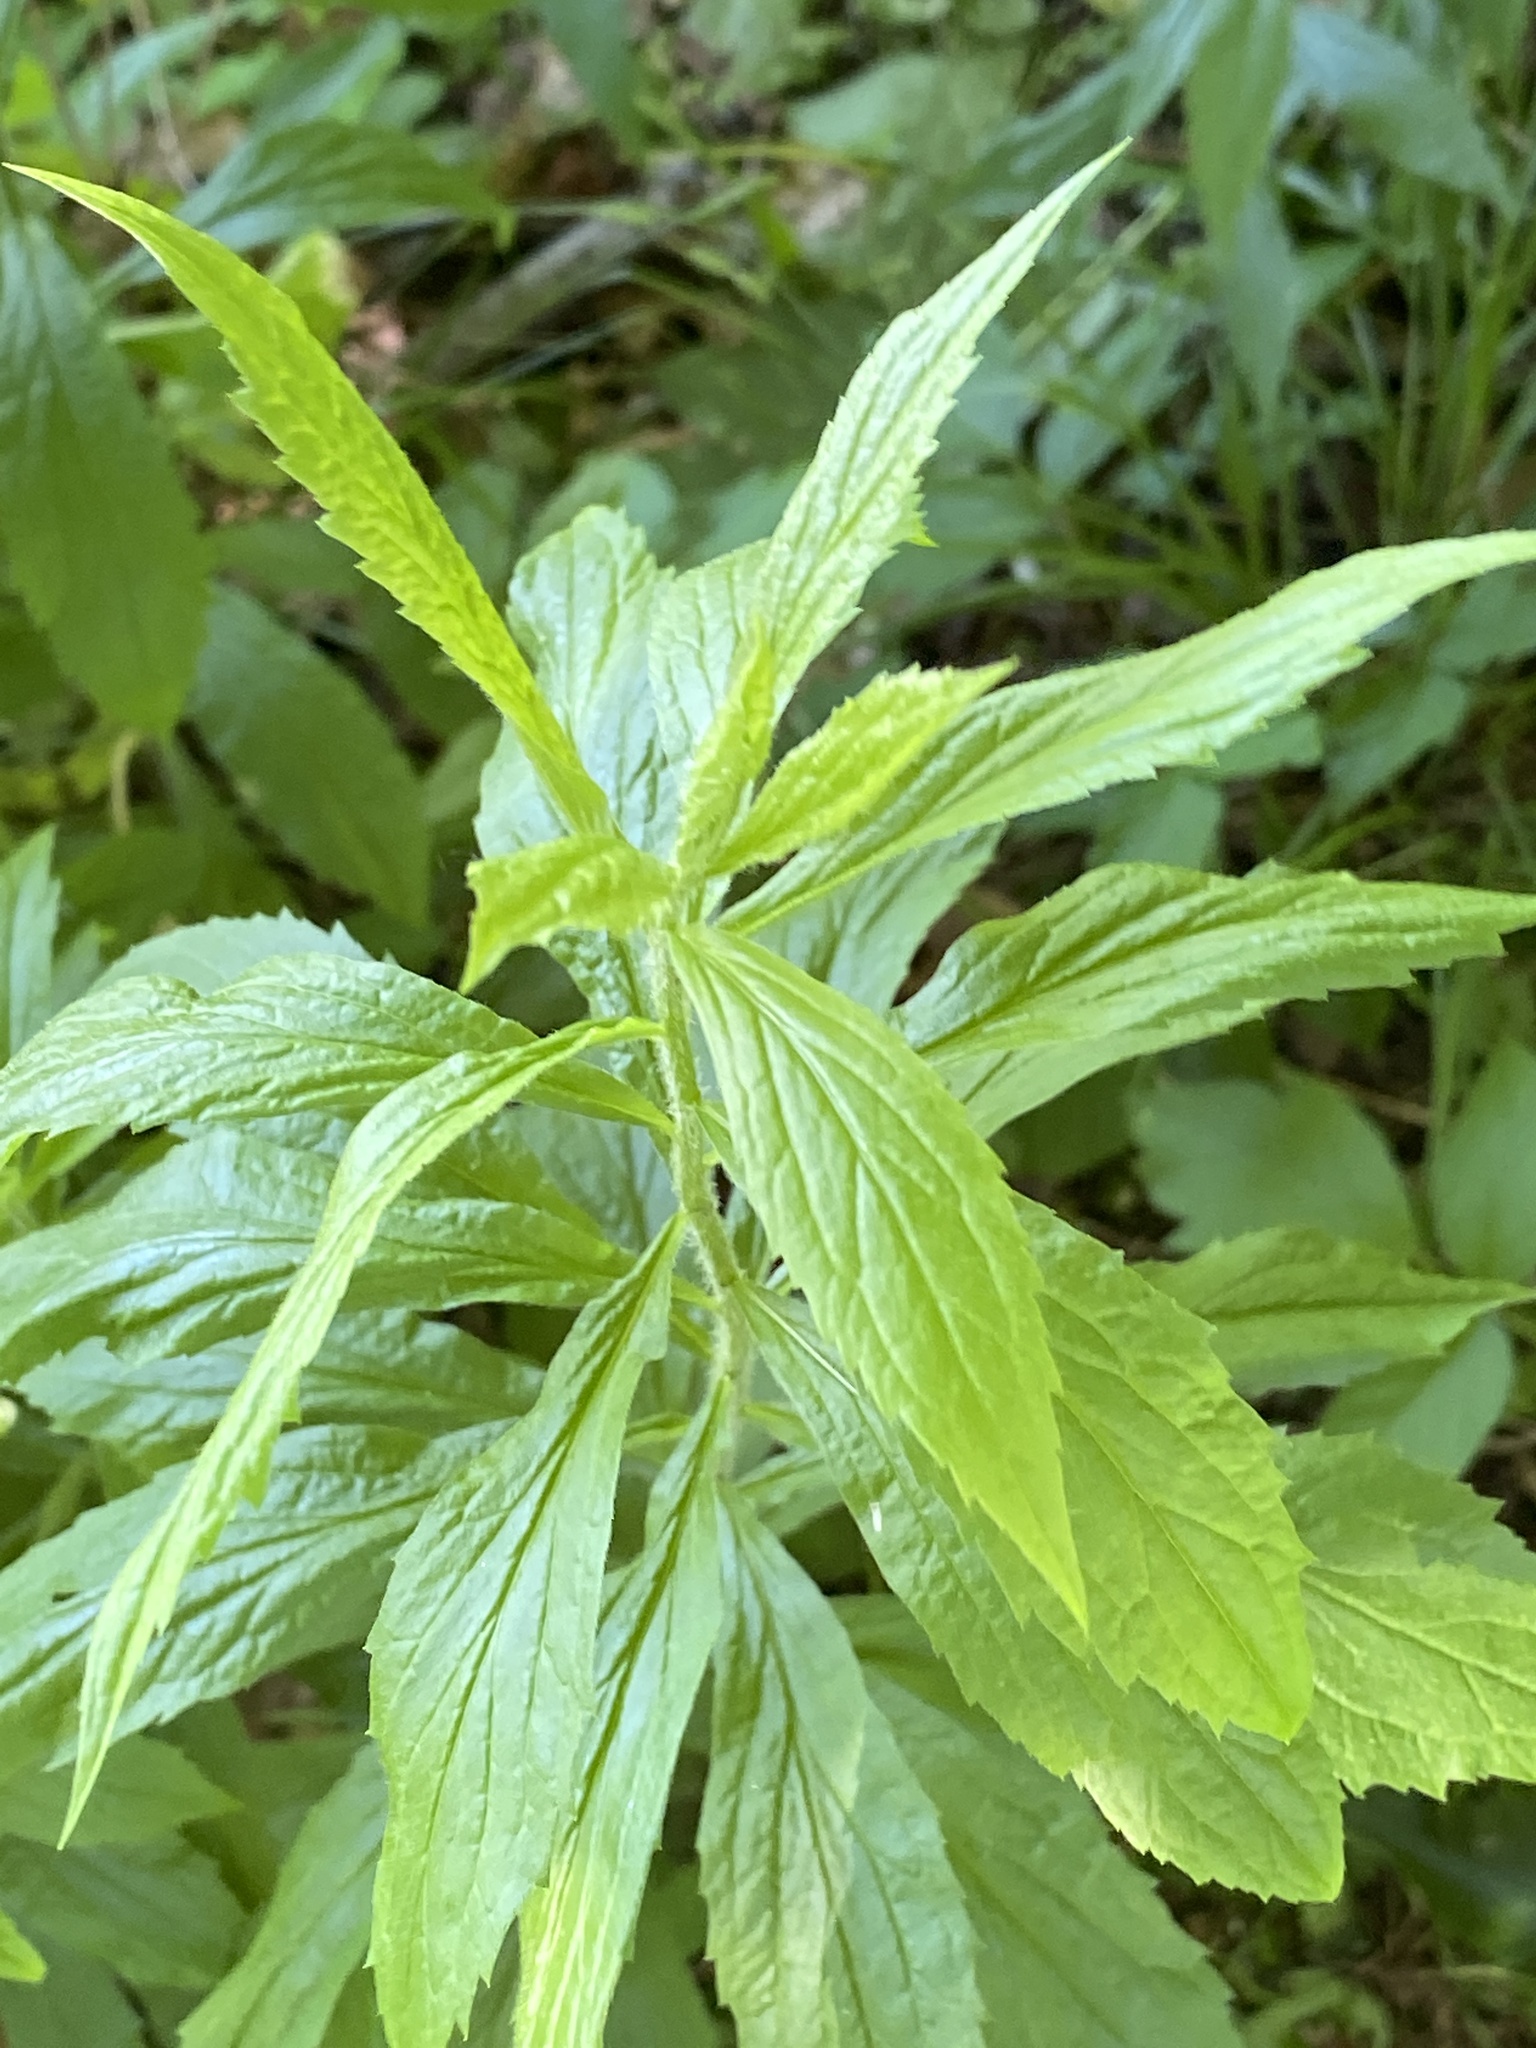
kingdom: Plantae
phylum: Tracheophyta
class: Magnoliopsida
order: Asterales
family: Asteraceae
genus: Solidago
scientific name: Solidago rugosa
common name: Rough-stemmed goldenrod
